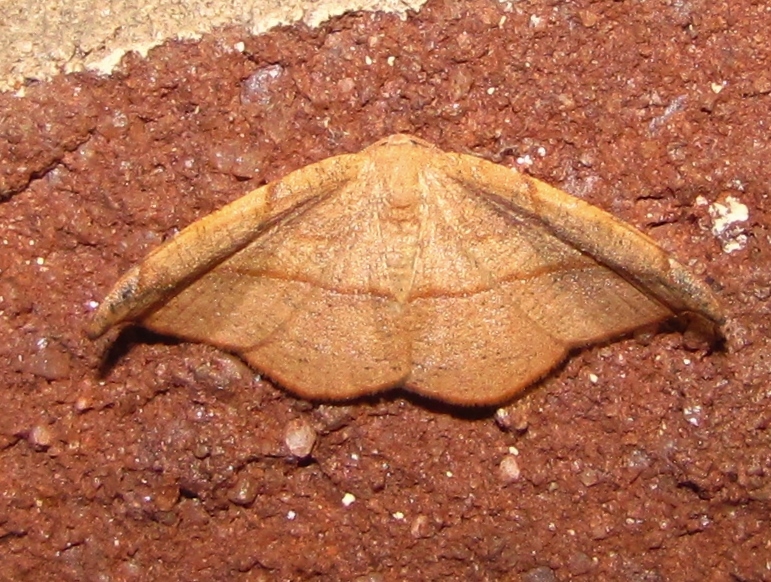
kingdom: Animalia
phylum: Arthropoda
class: Insecta
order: Lepidoptera
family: Geometridae
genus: Patalene
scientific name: Patalene olyzonaria
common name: Juniper geometer moth
